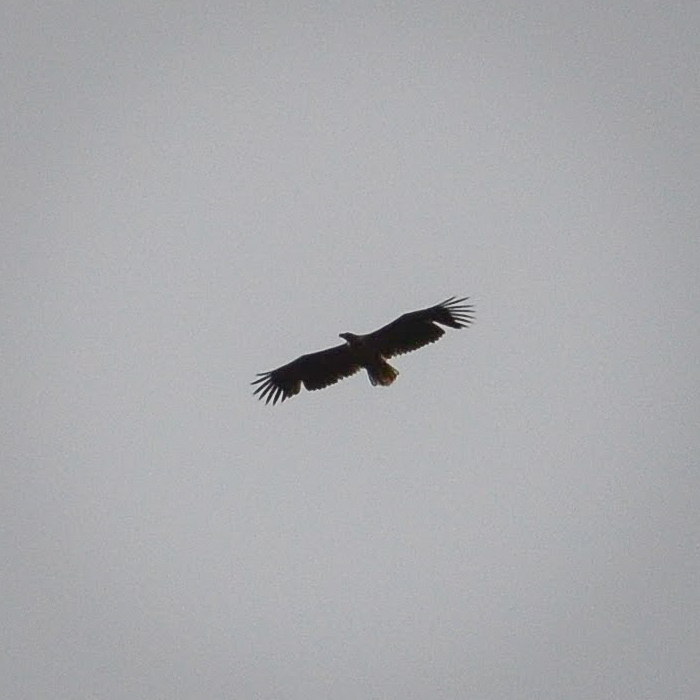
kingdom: Animalia
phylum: Chordata
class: Aves
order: Accipitriformes
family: Accipitridae
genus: Haliaeetus
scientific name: Haliaeetus albicilla
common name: White-tailed eagle
